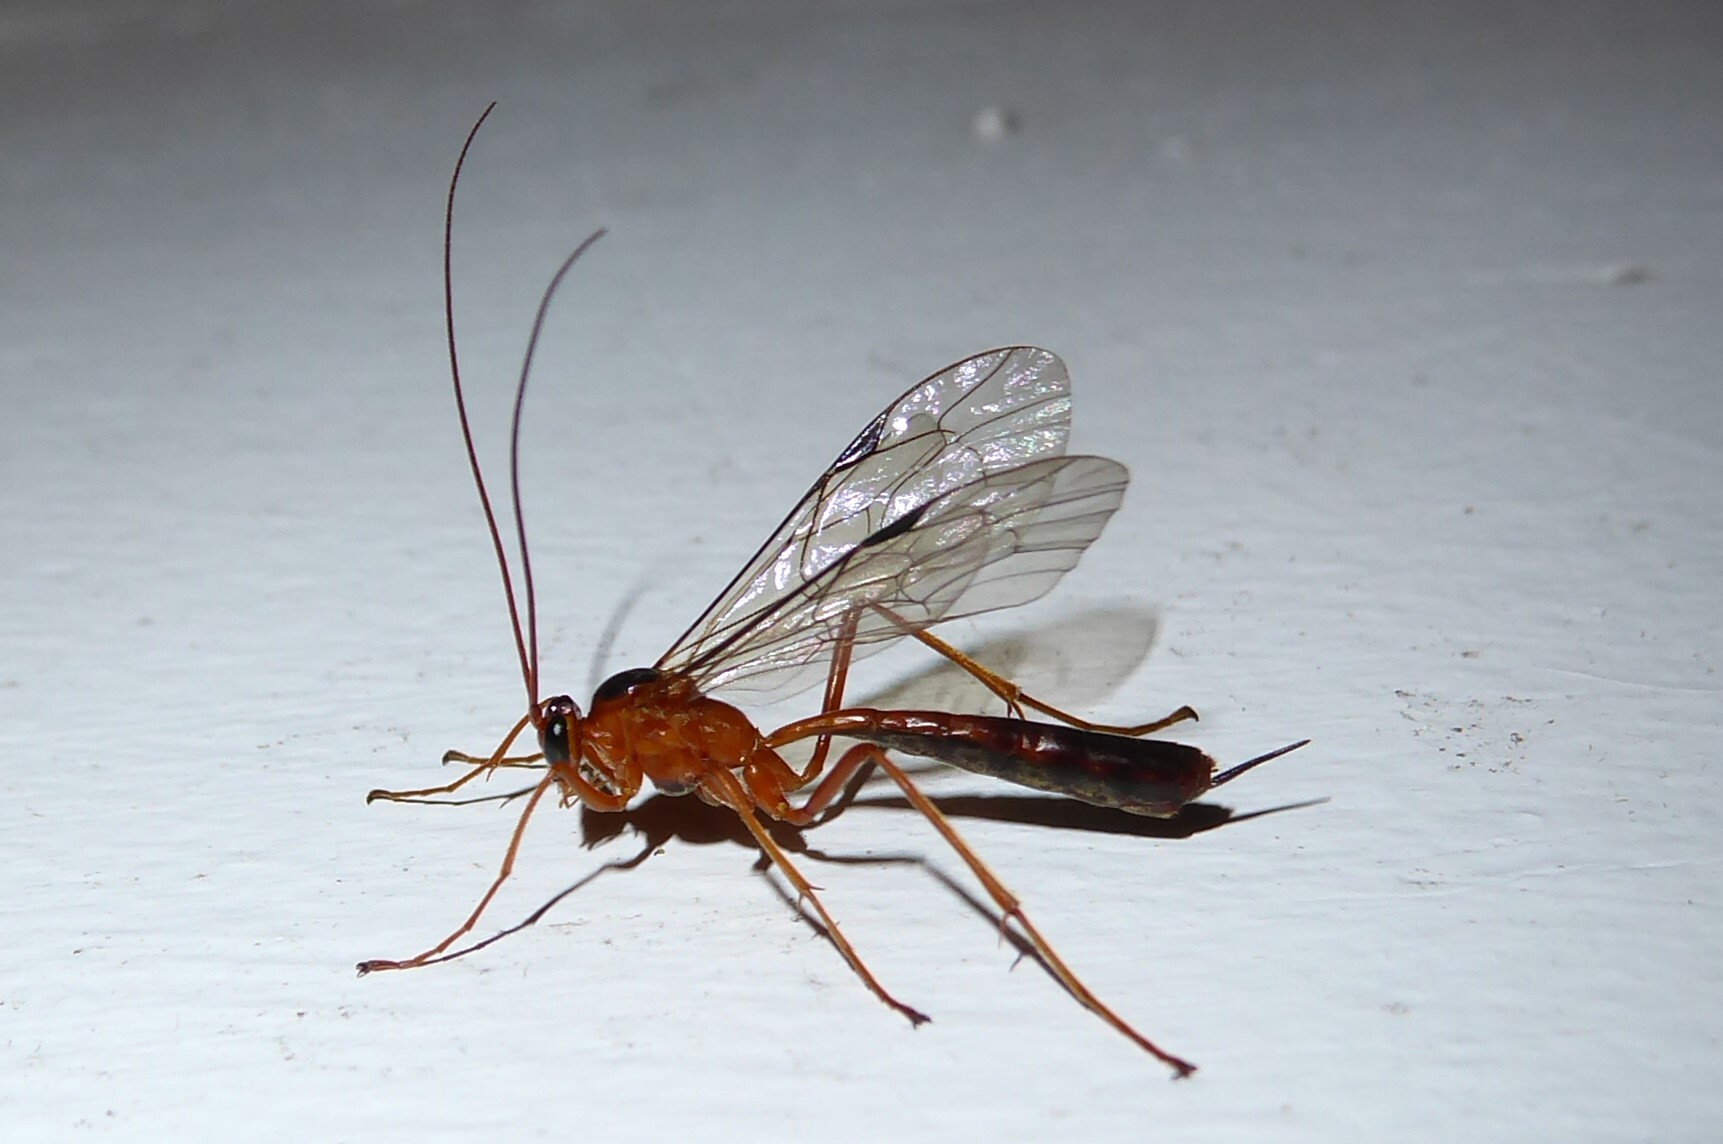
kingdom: Animalia
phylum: Arthropoda
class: Insecta
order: Hymenoptera
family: Ichneumonidae
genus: Netelia
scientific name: Netelia ephippiata
